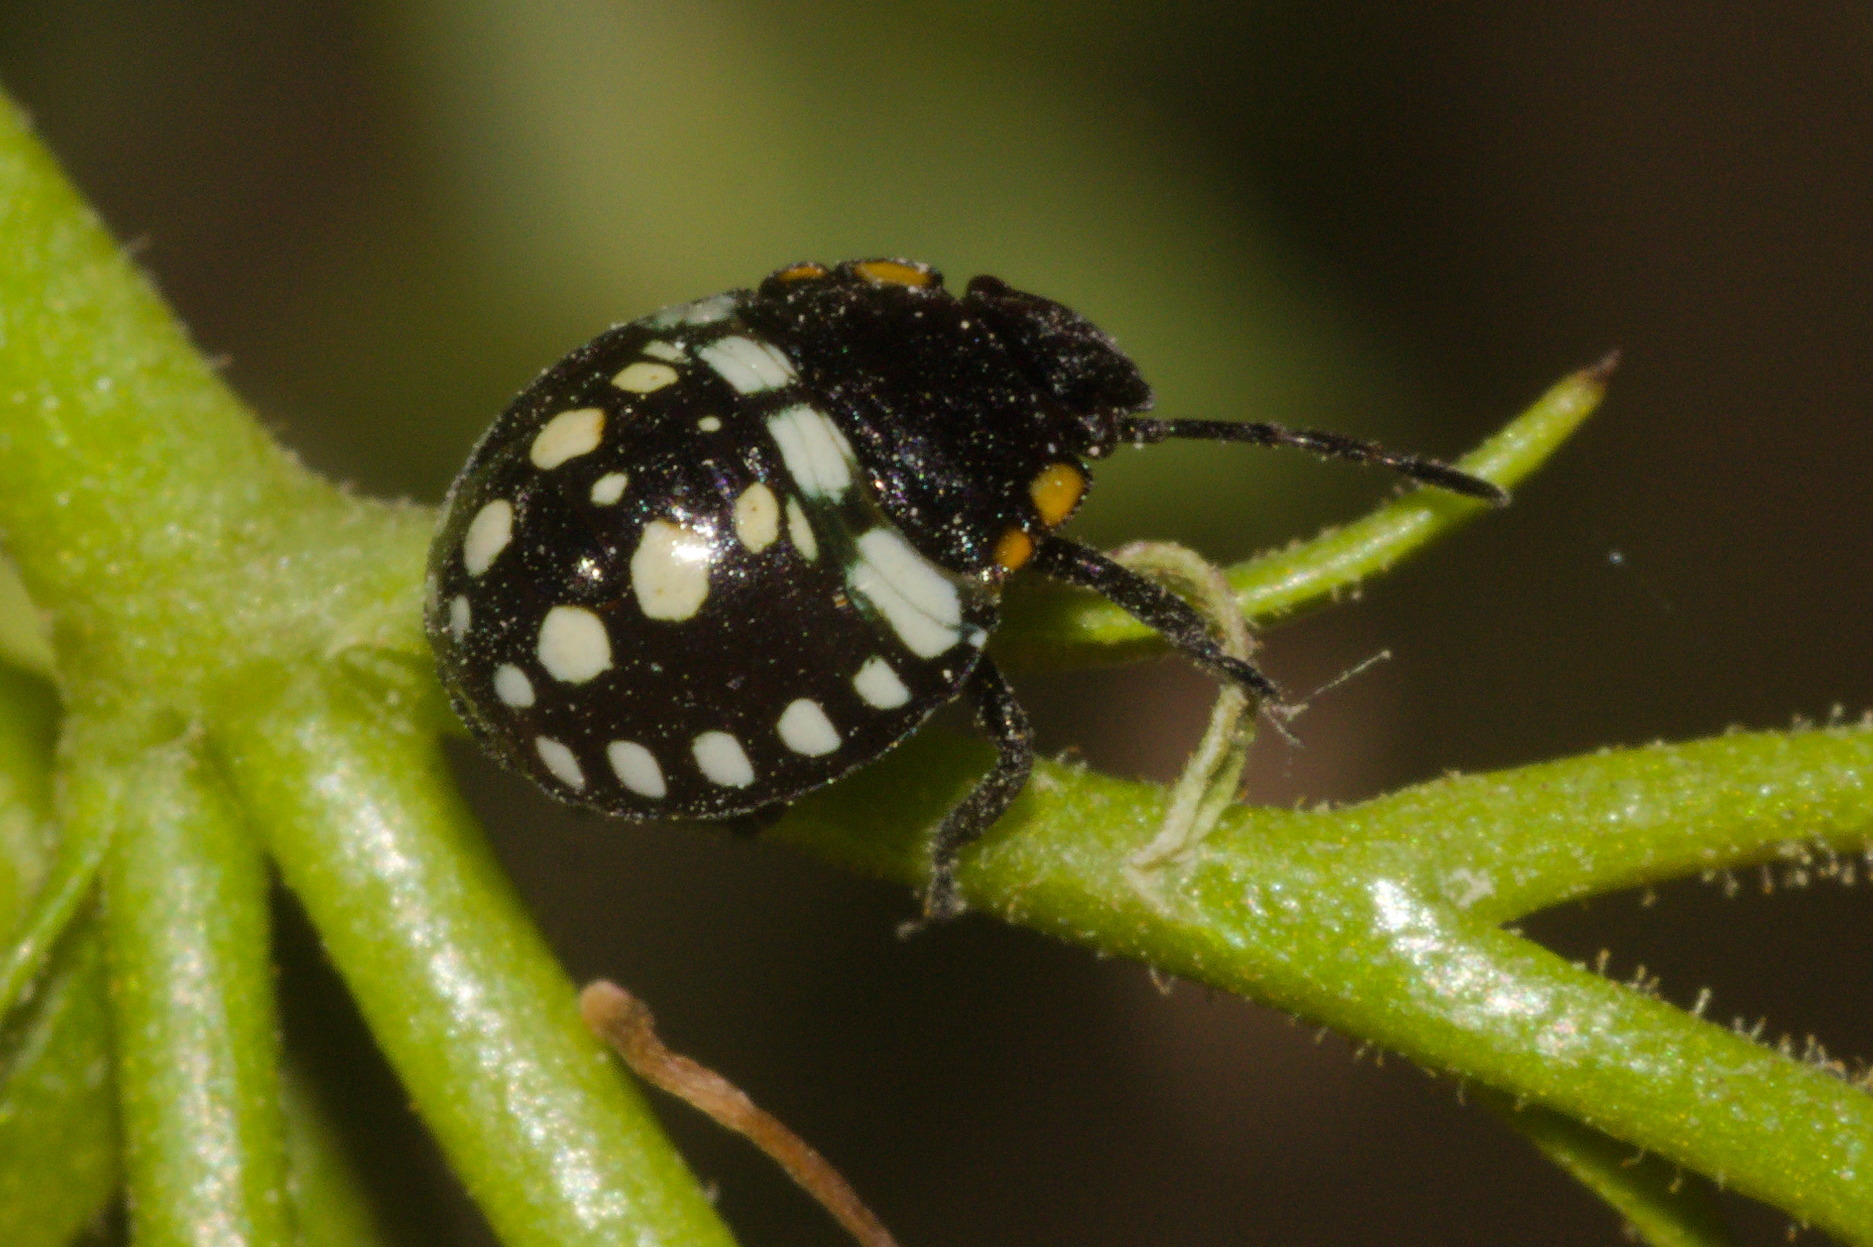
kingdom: Animalia
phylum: Arthropoda
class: Insecta
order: Hemiptera
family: Pentatomidae
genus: Nezara
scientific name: Nezara viridula
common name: Southern green stink bug
